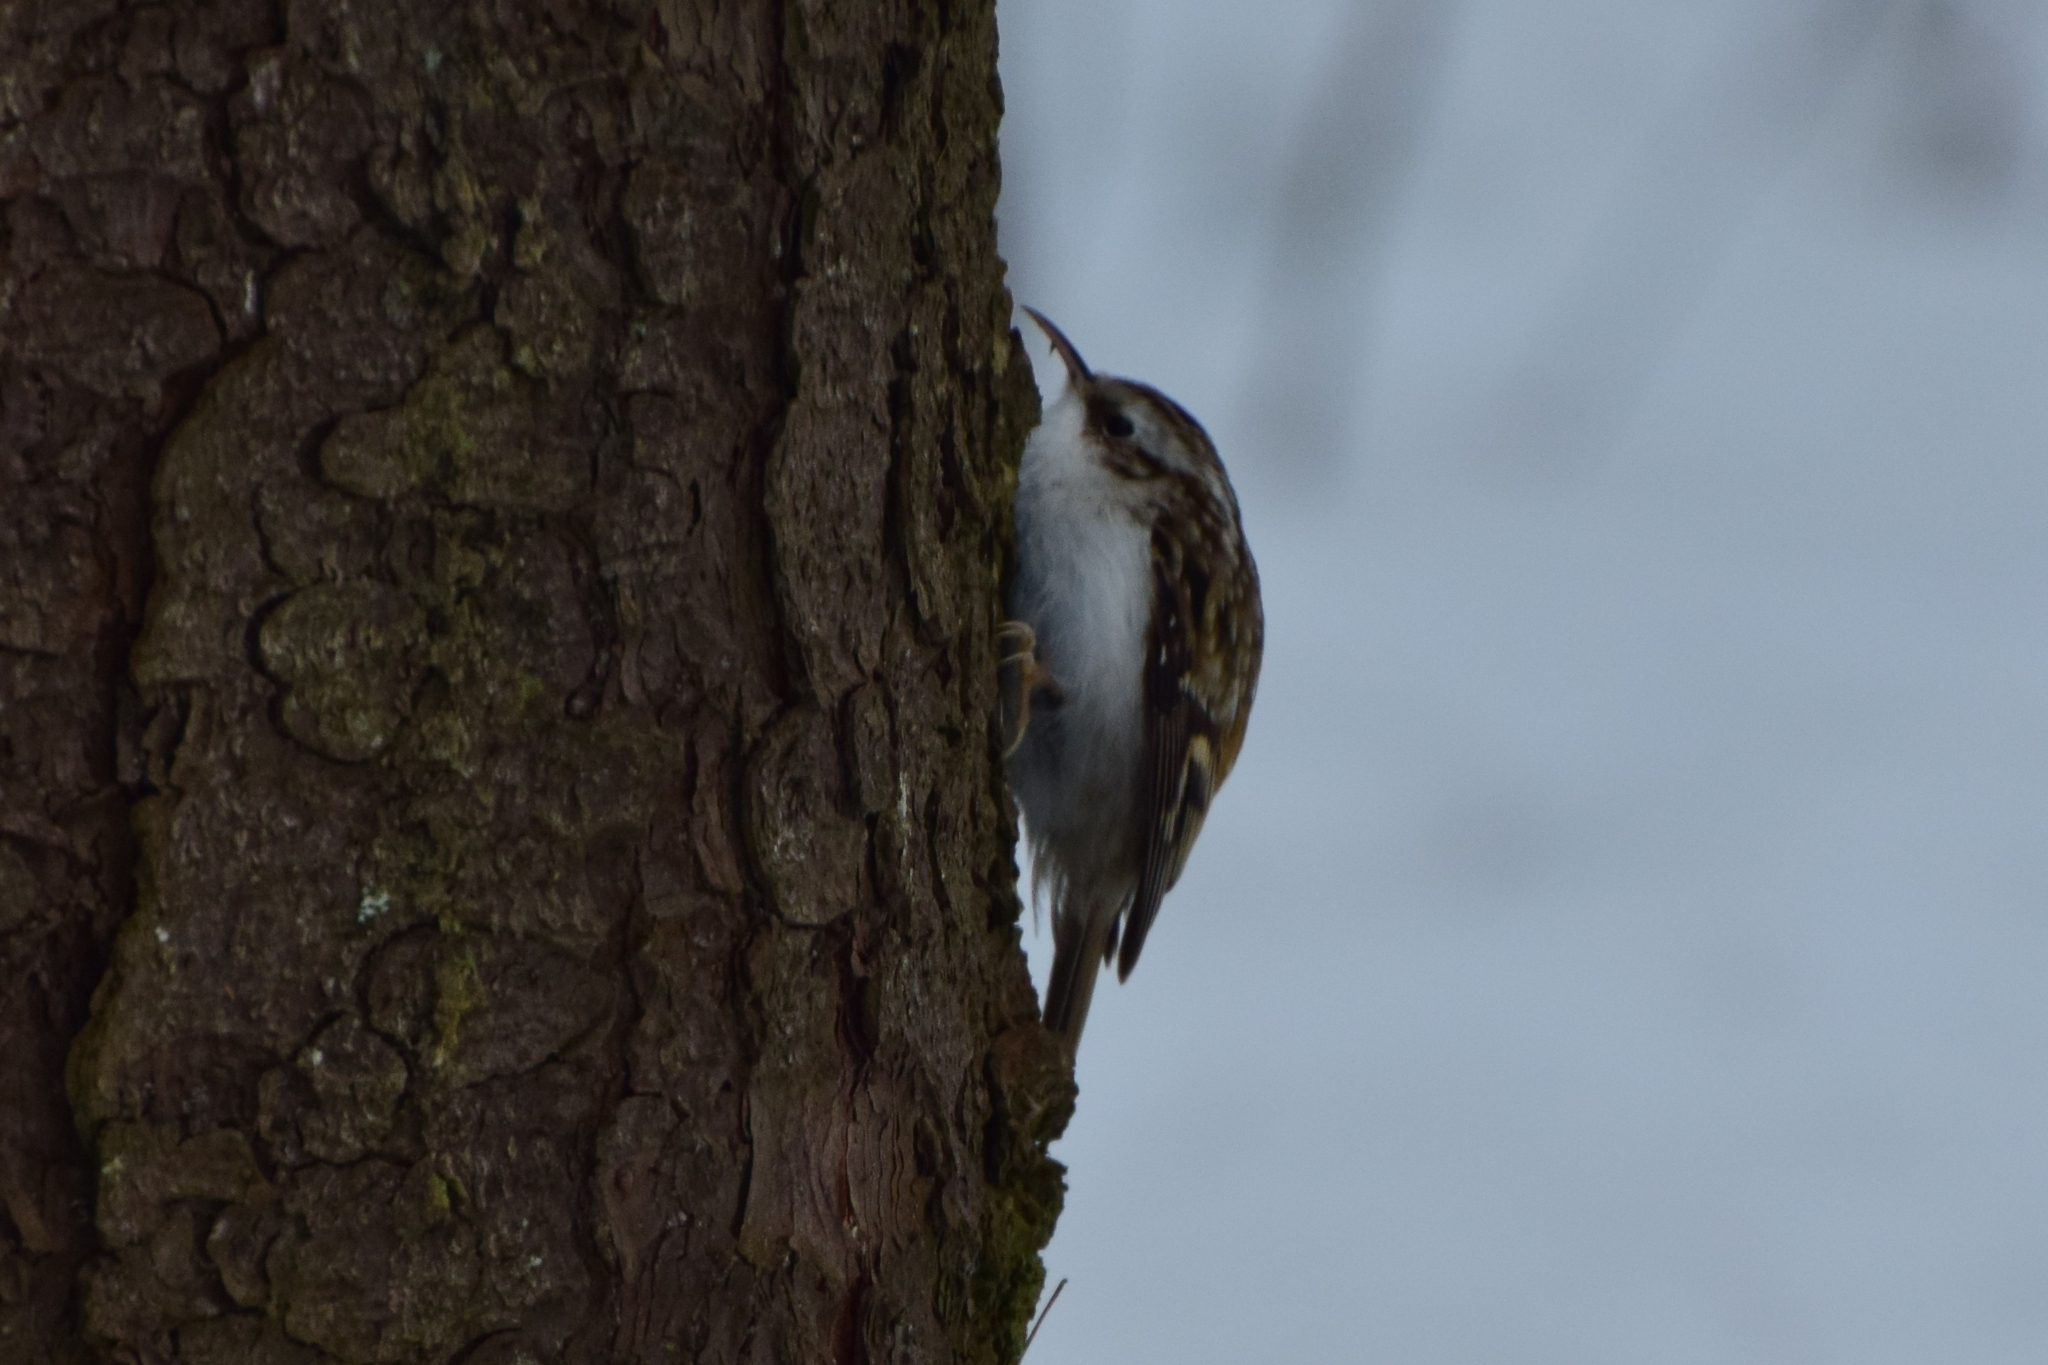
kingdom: Animalia
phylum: Chordata
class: Aves
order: Passeriformes
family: Certhiidae
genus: Certhia
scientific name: Certhia familiaris
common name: Eurasian treecreeper
